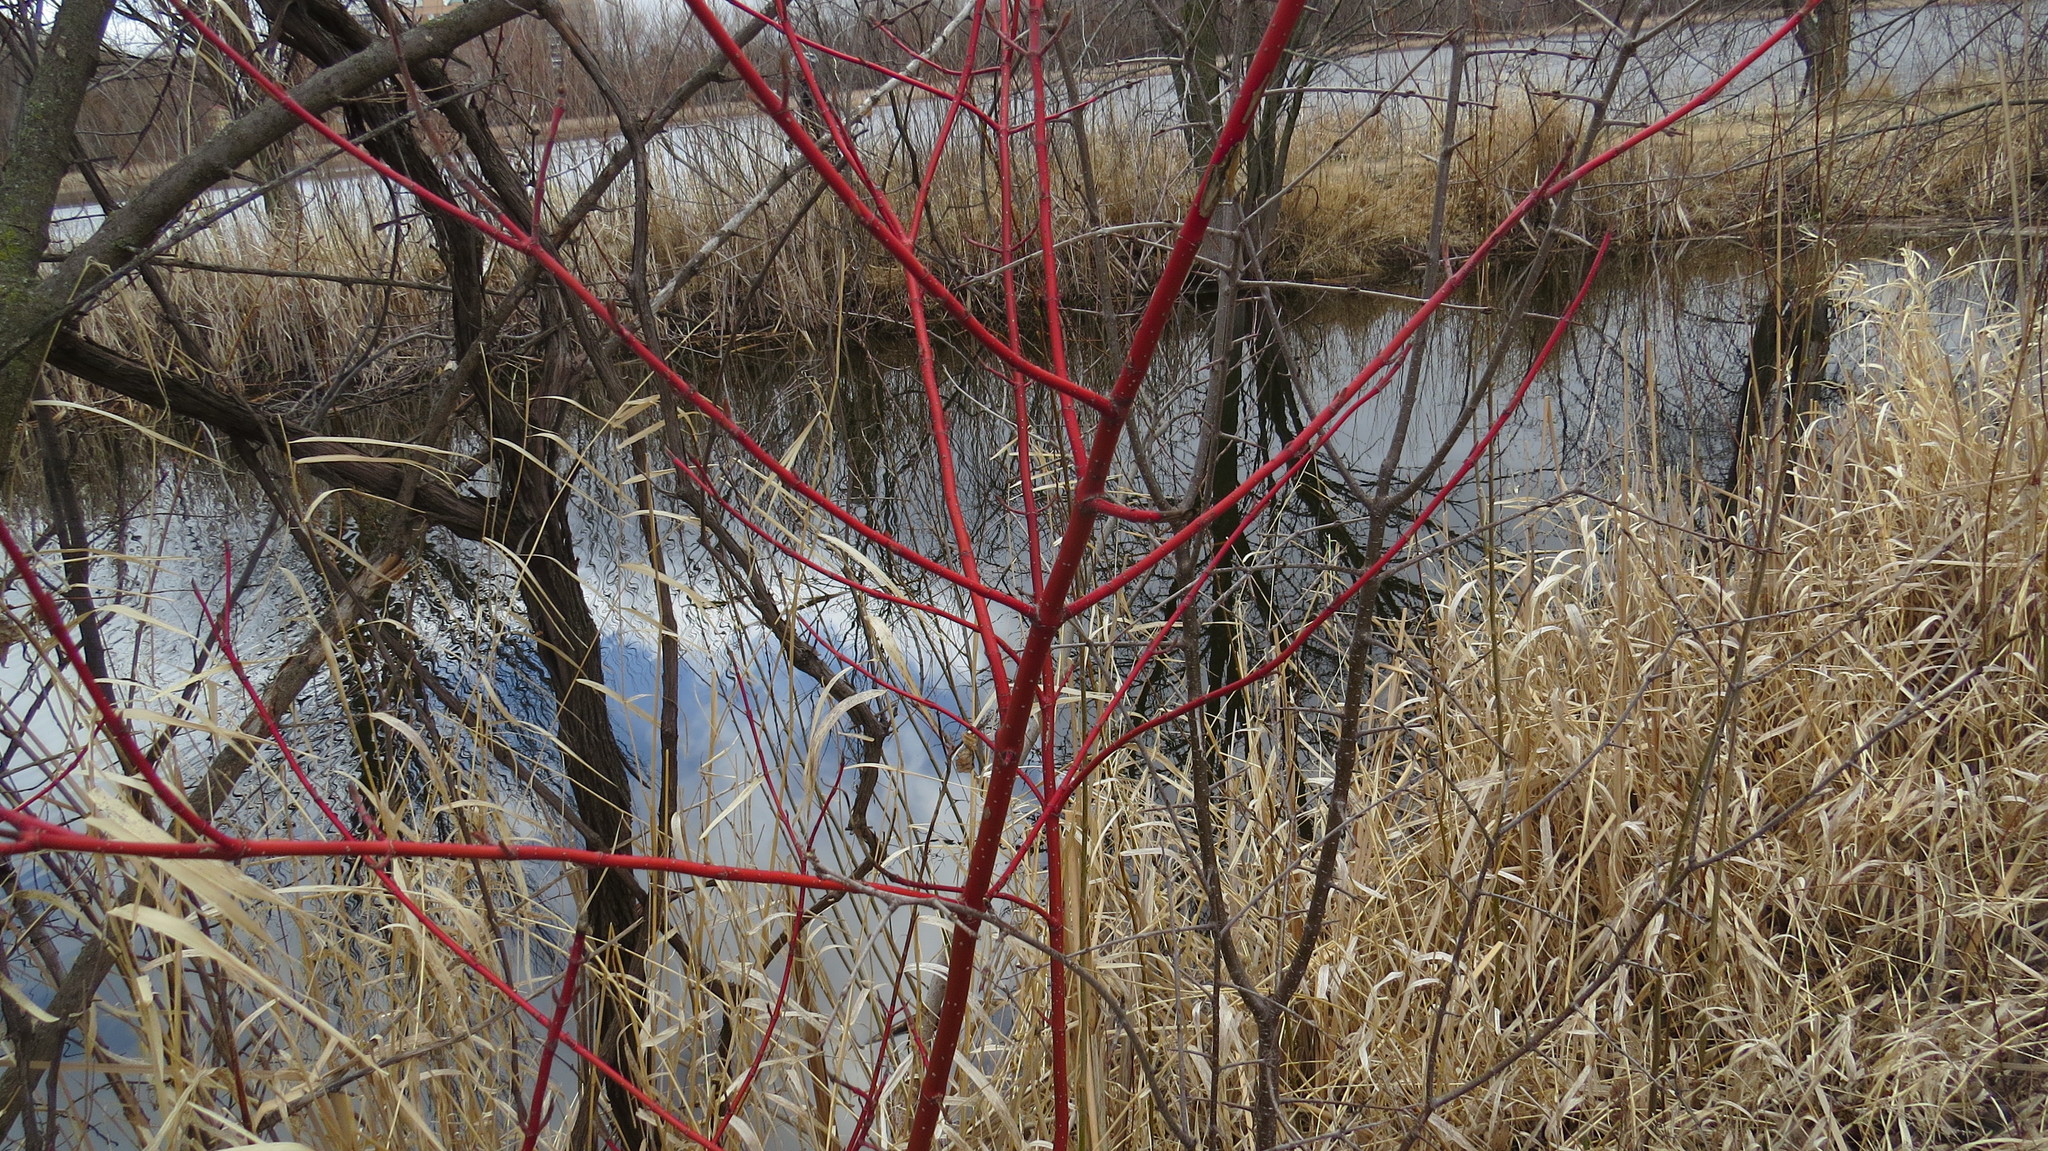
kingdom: Plantae
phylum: Tracheophyta
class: Magnoliopsida
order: Cornales
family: Cornaceae
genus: Cornus
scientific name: Cornus sericea
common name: Red-osier dogwood
